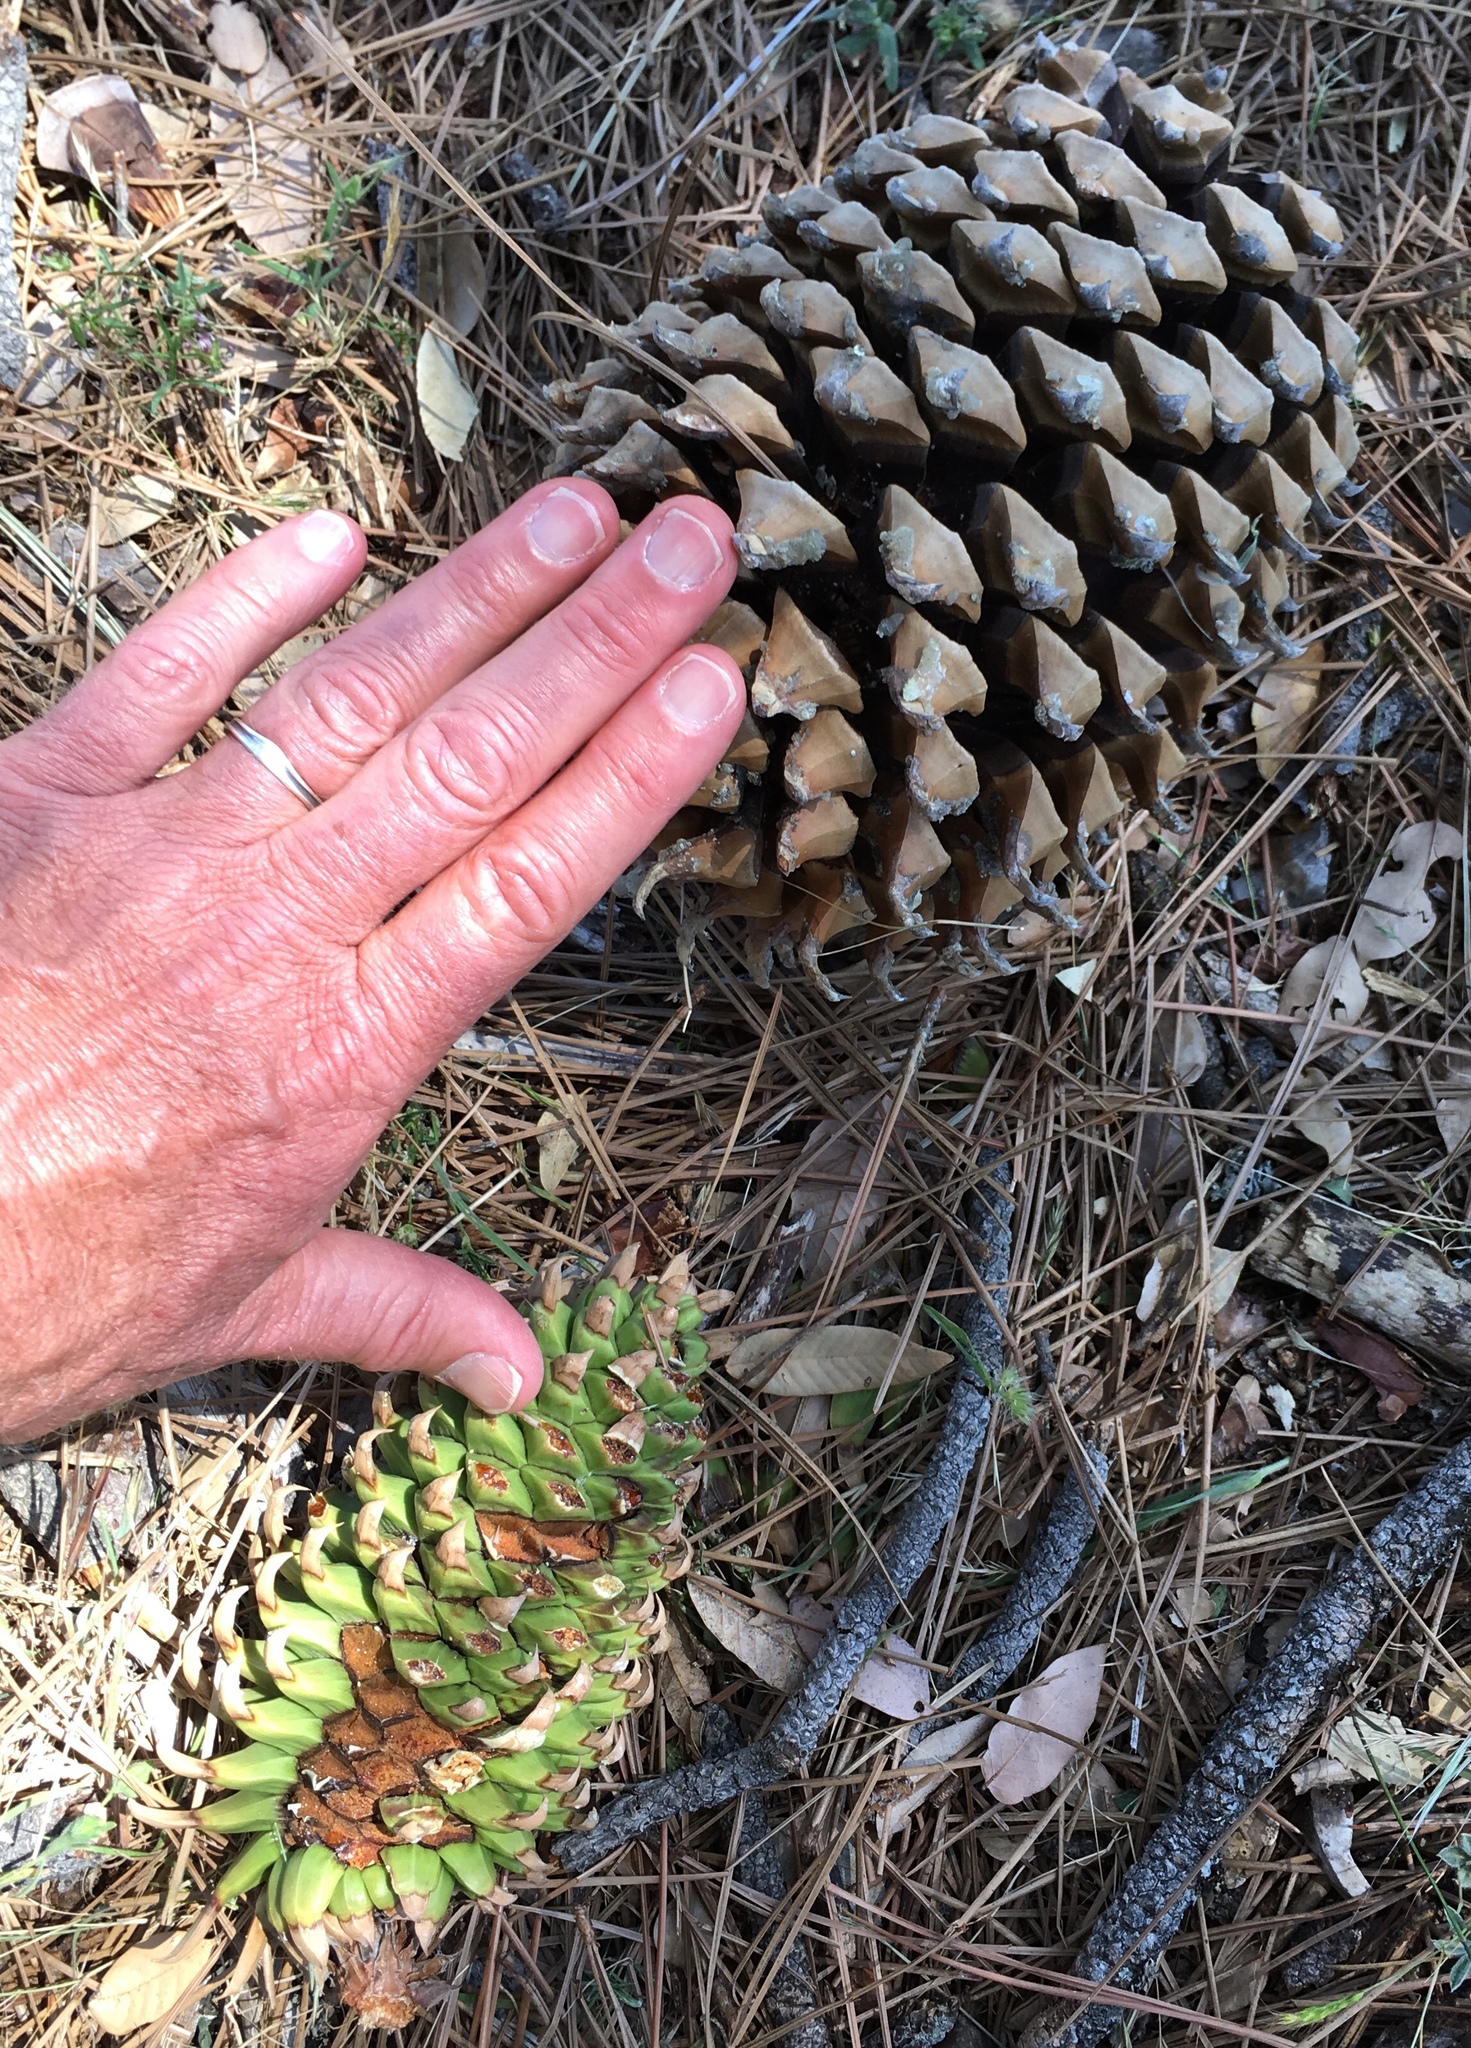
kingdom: Plantae
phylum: Tracheophyta
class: Pinopsida
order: Pinales
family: Pinaceae
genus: Pinus
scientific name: Pinus coulteri
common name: Coulter pine
